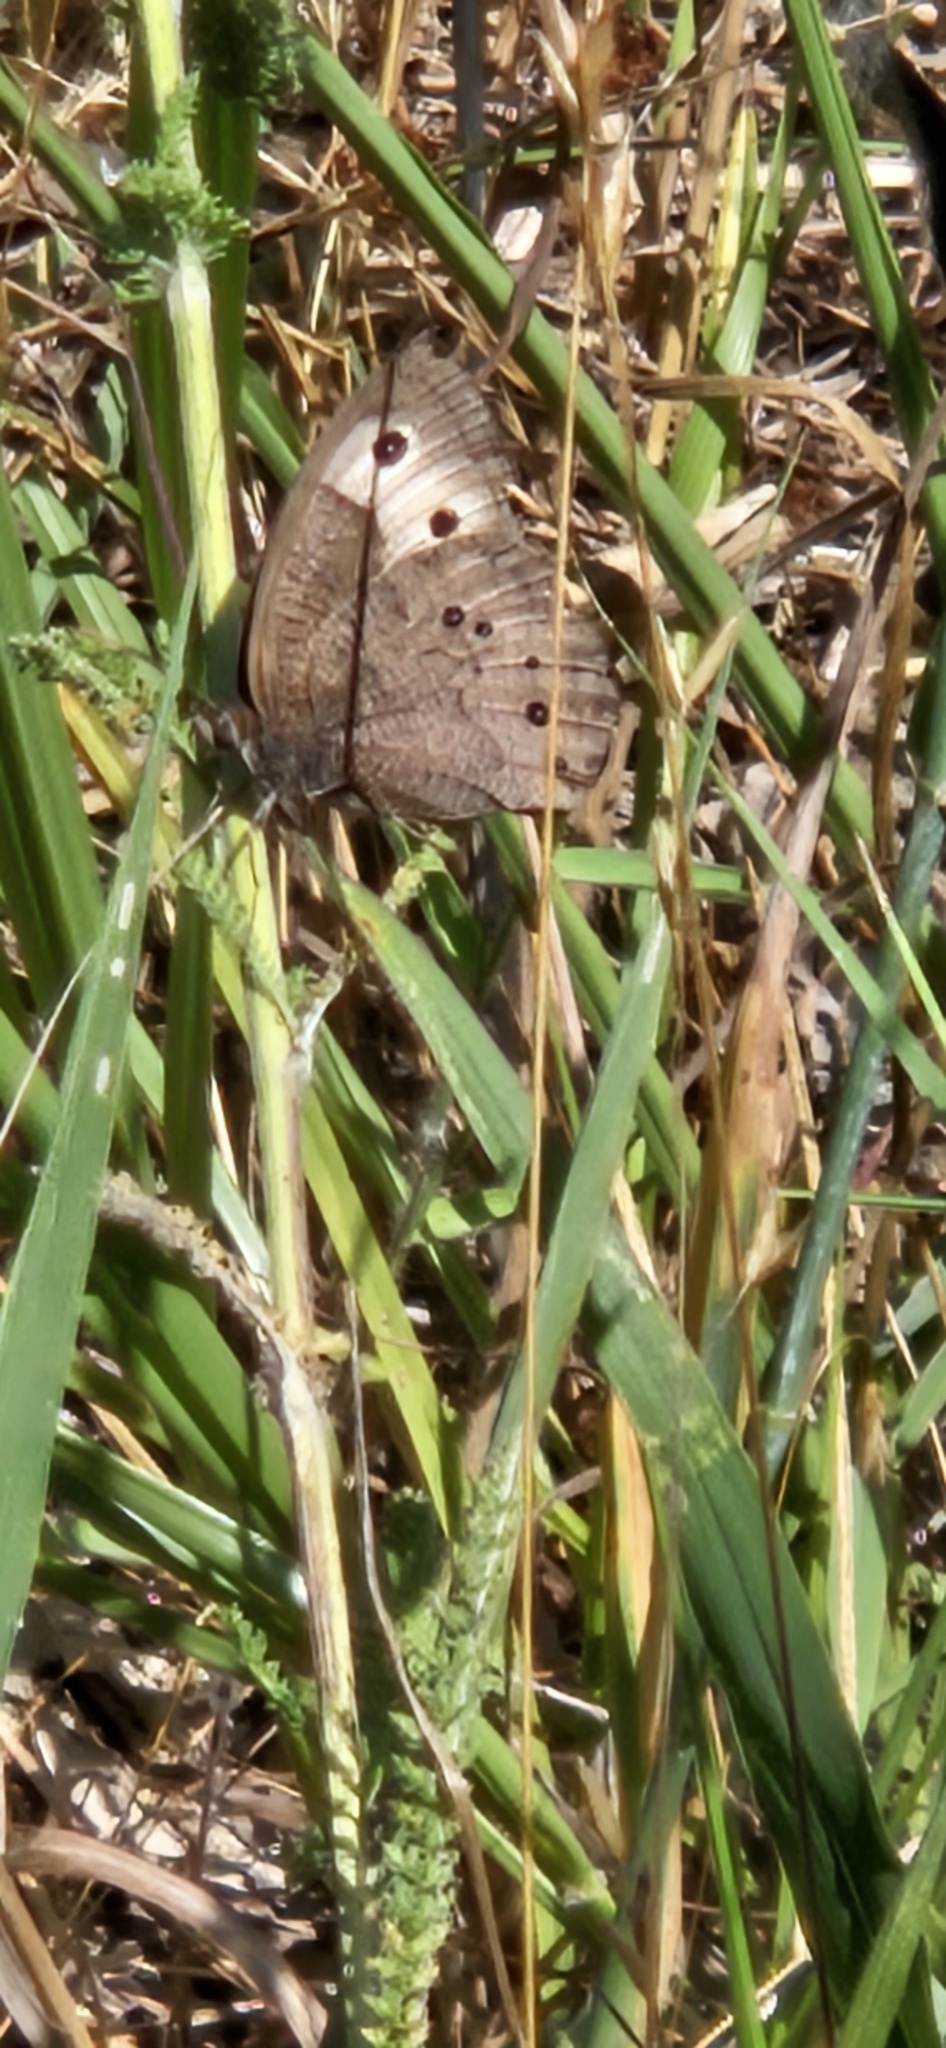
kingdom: Animalia
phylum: Arthropoda
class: Insecta
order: Lepidoptera
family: Nymphalidae
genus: Cercyonis
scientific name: Cercyonis pegala
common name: Common wood-nymph
